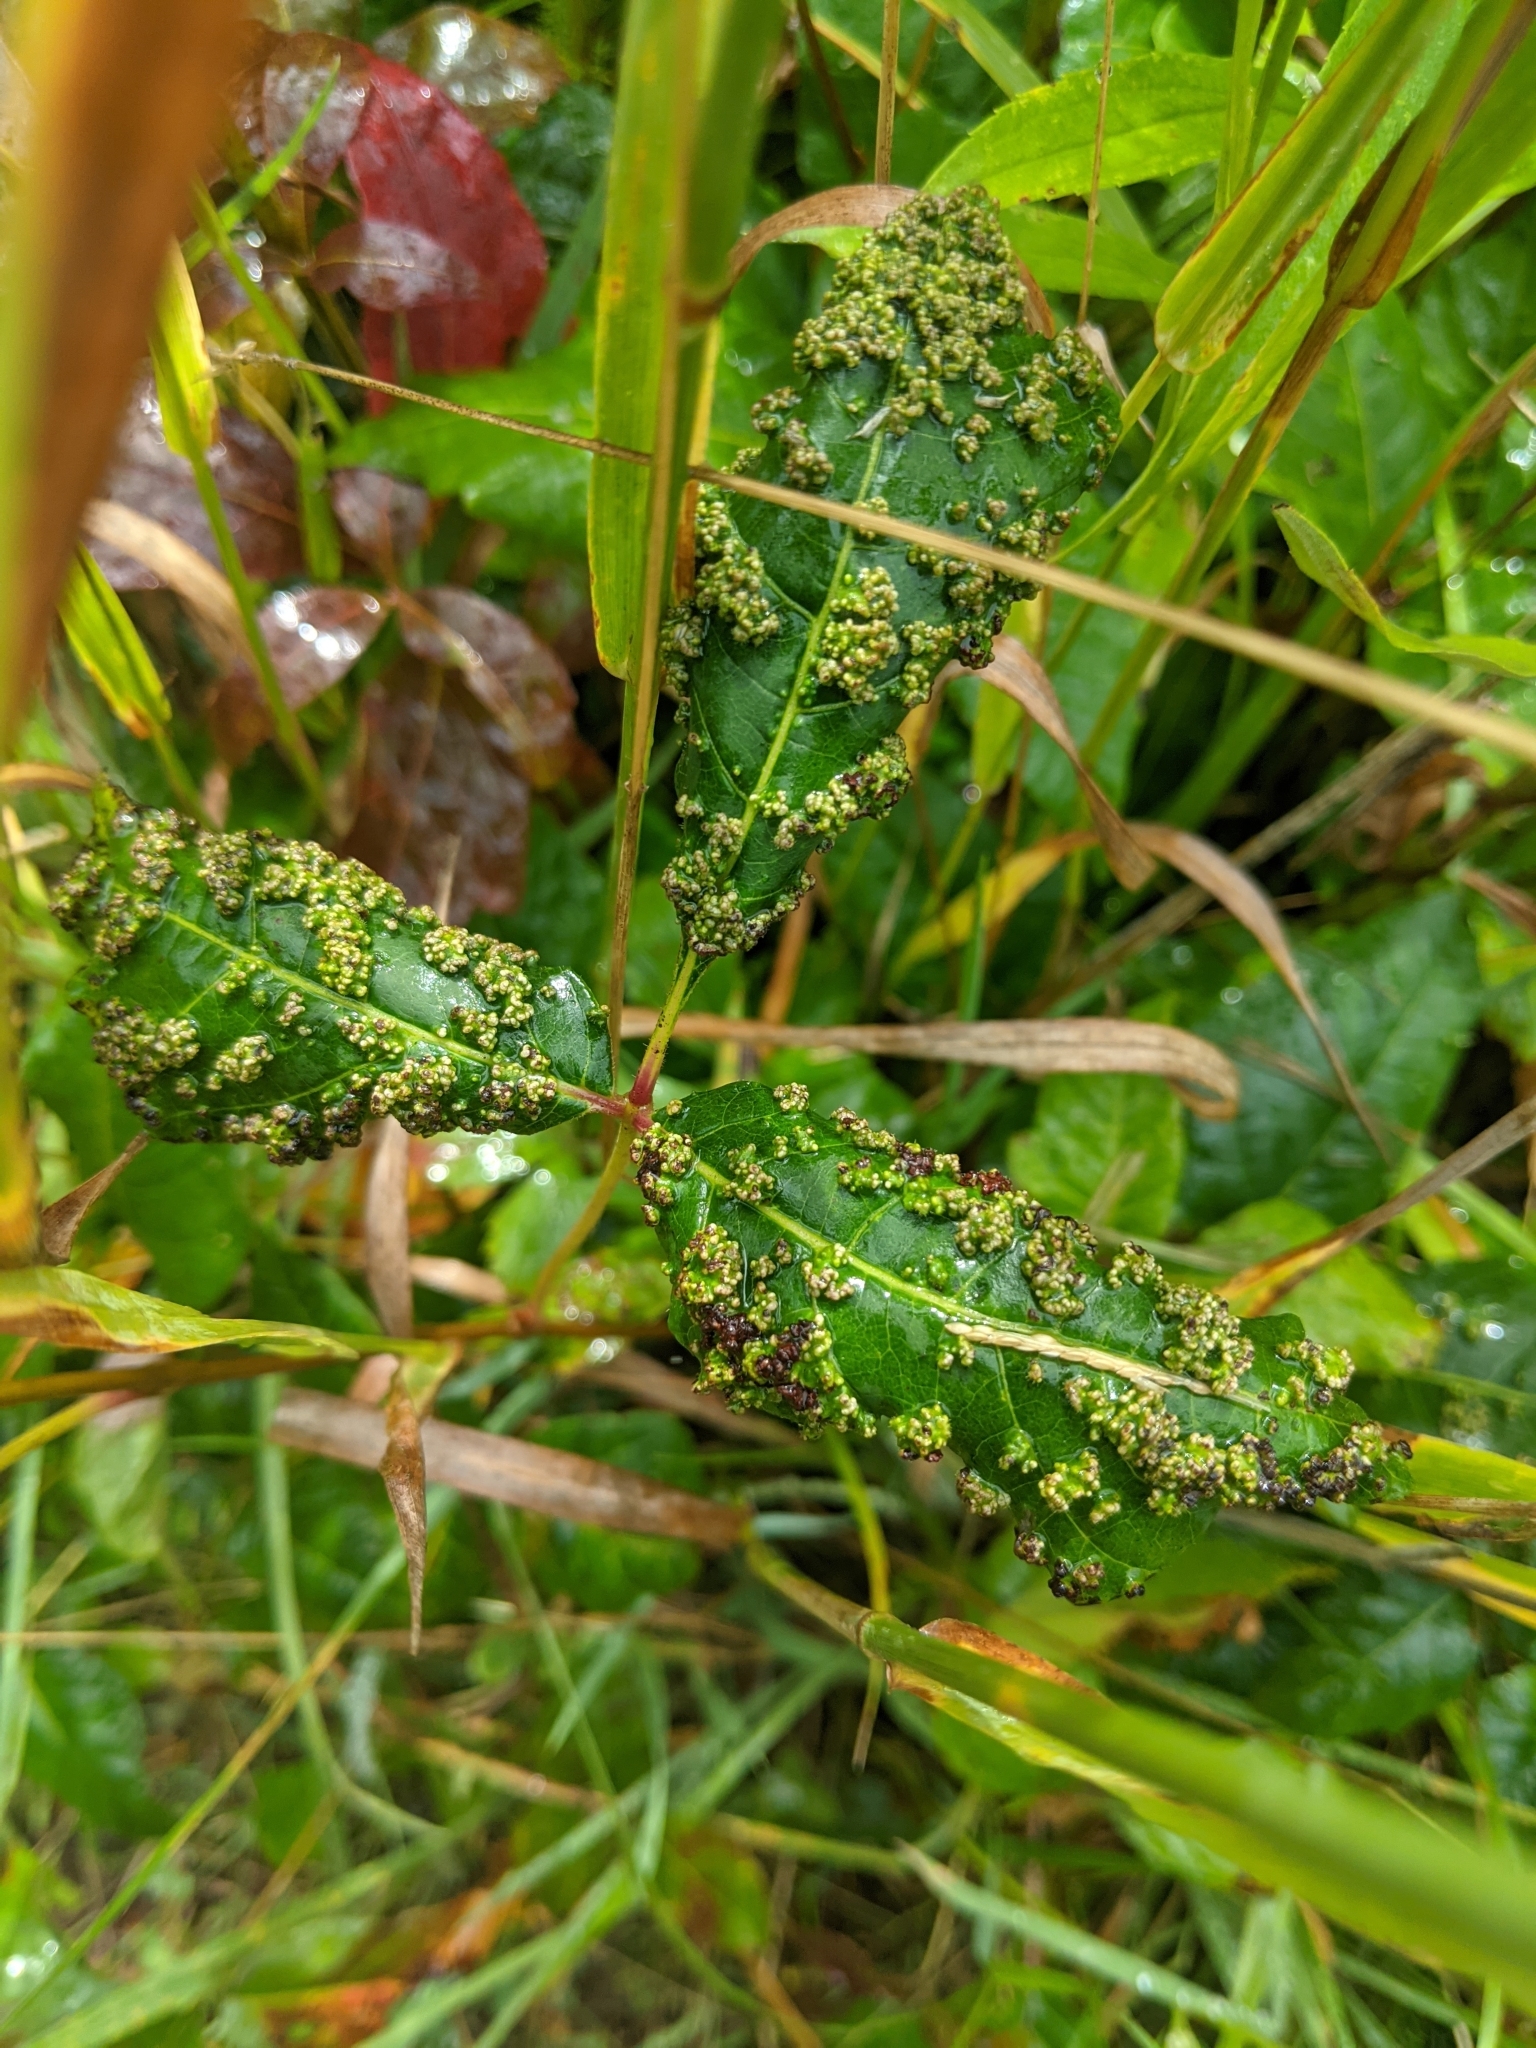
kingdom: Animalia
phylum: Arthropoda
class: Arachnida
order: Trombidiformes
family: Eriophyidae
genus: Aculops
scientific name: Aculops
